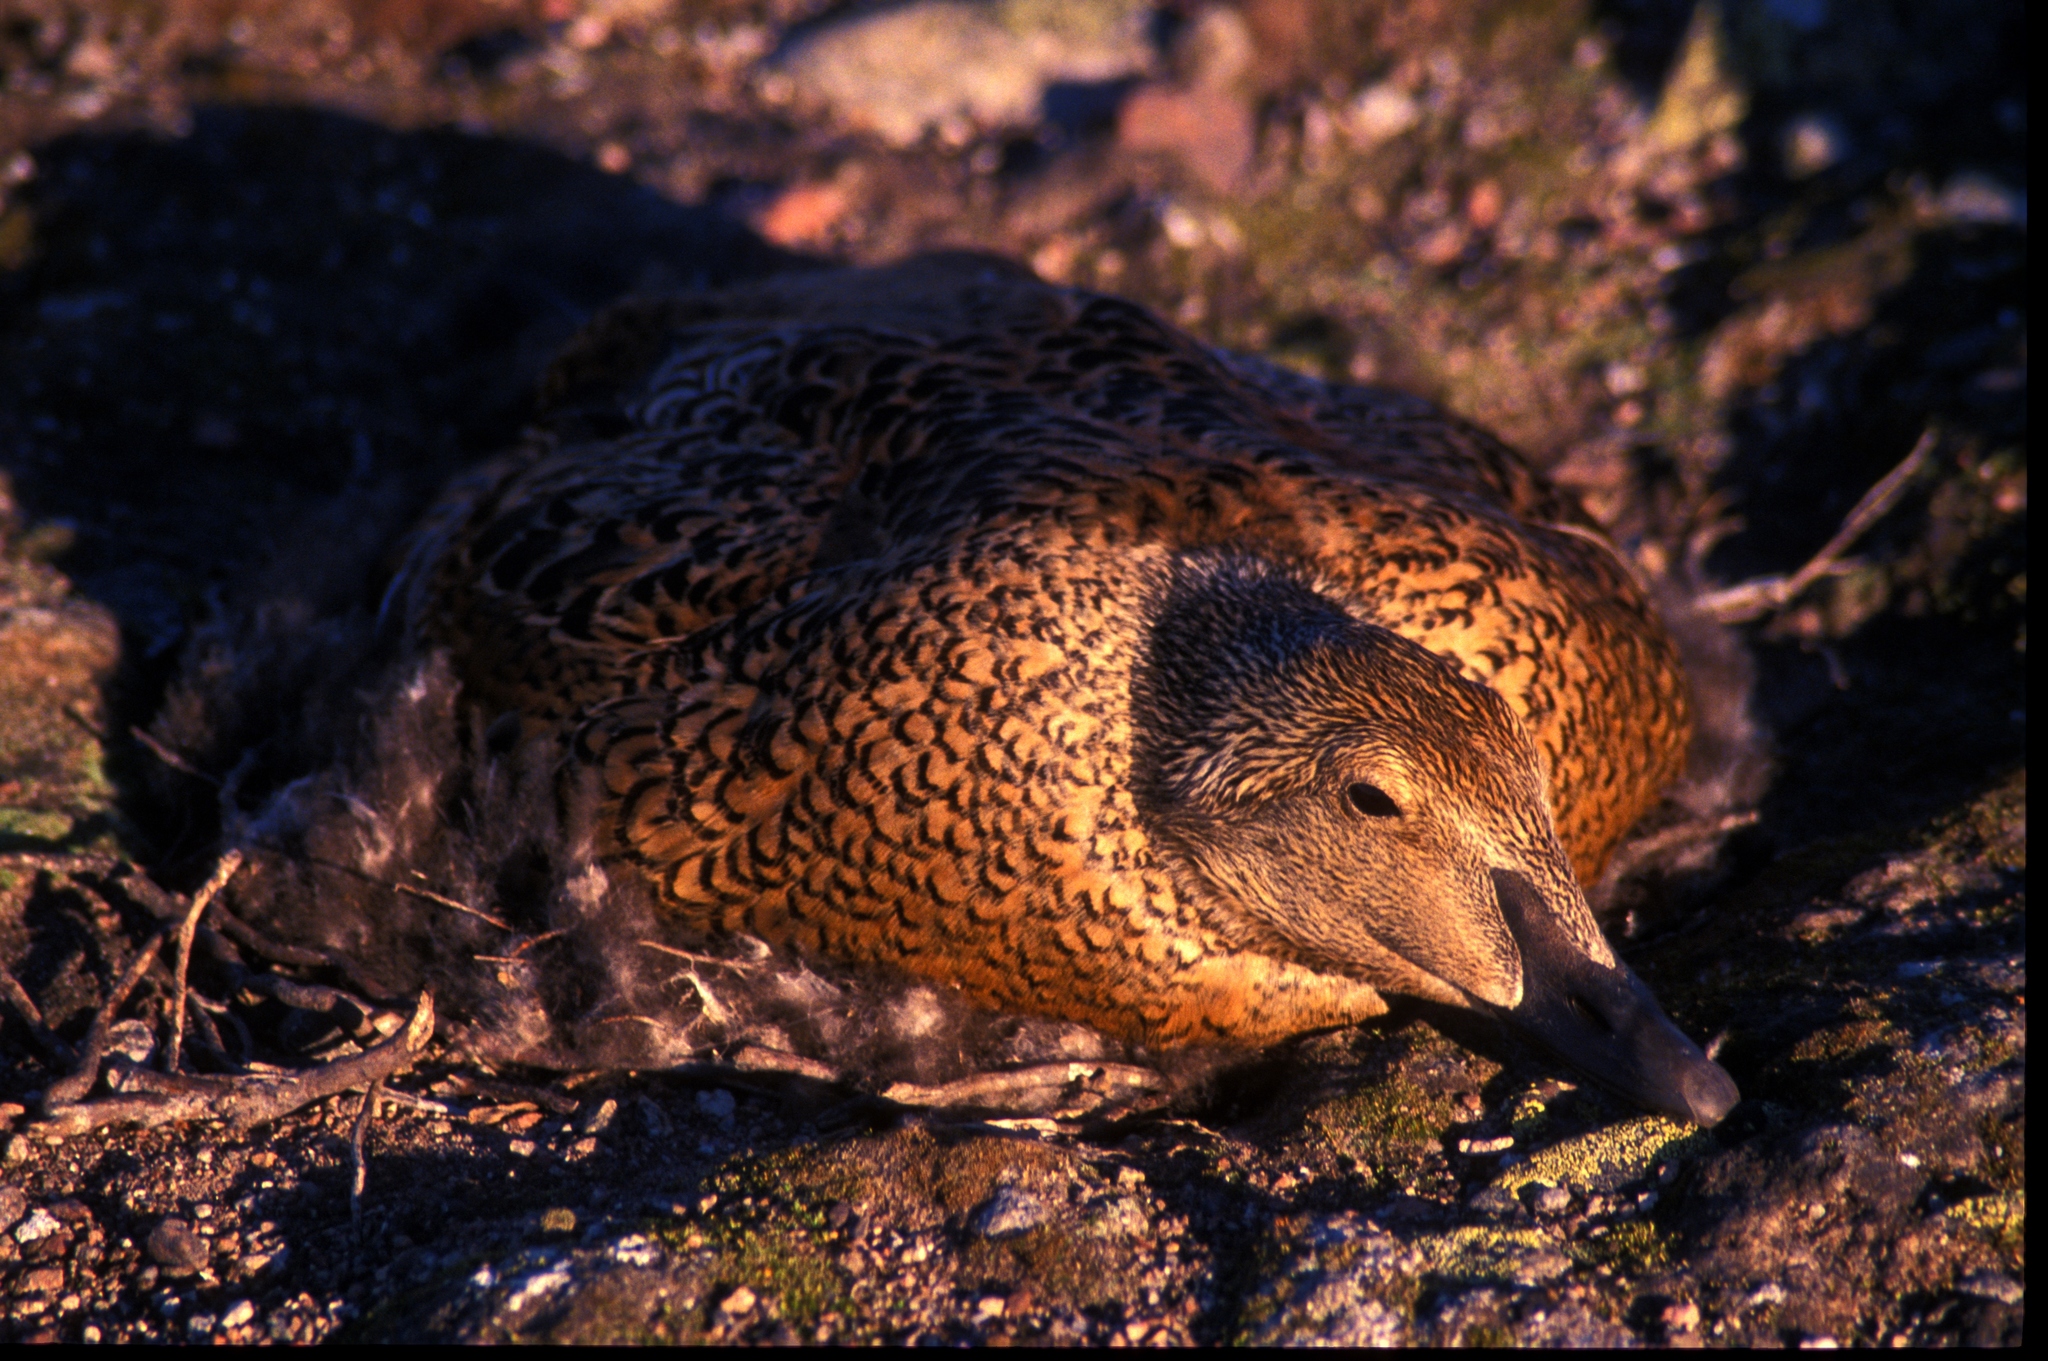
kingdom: Animalia
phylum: Chordata
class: Aves
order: Anseriformes
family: Anatidae
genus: Somateria
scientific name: Somateria spectabilis
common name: King eider
